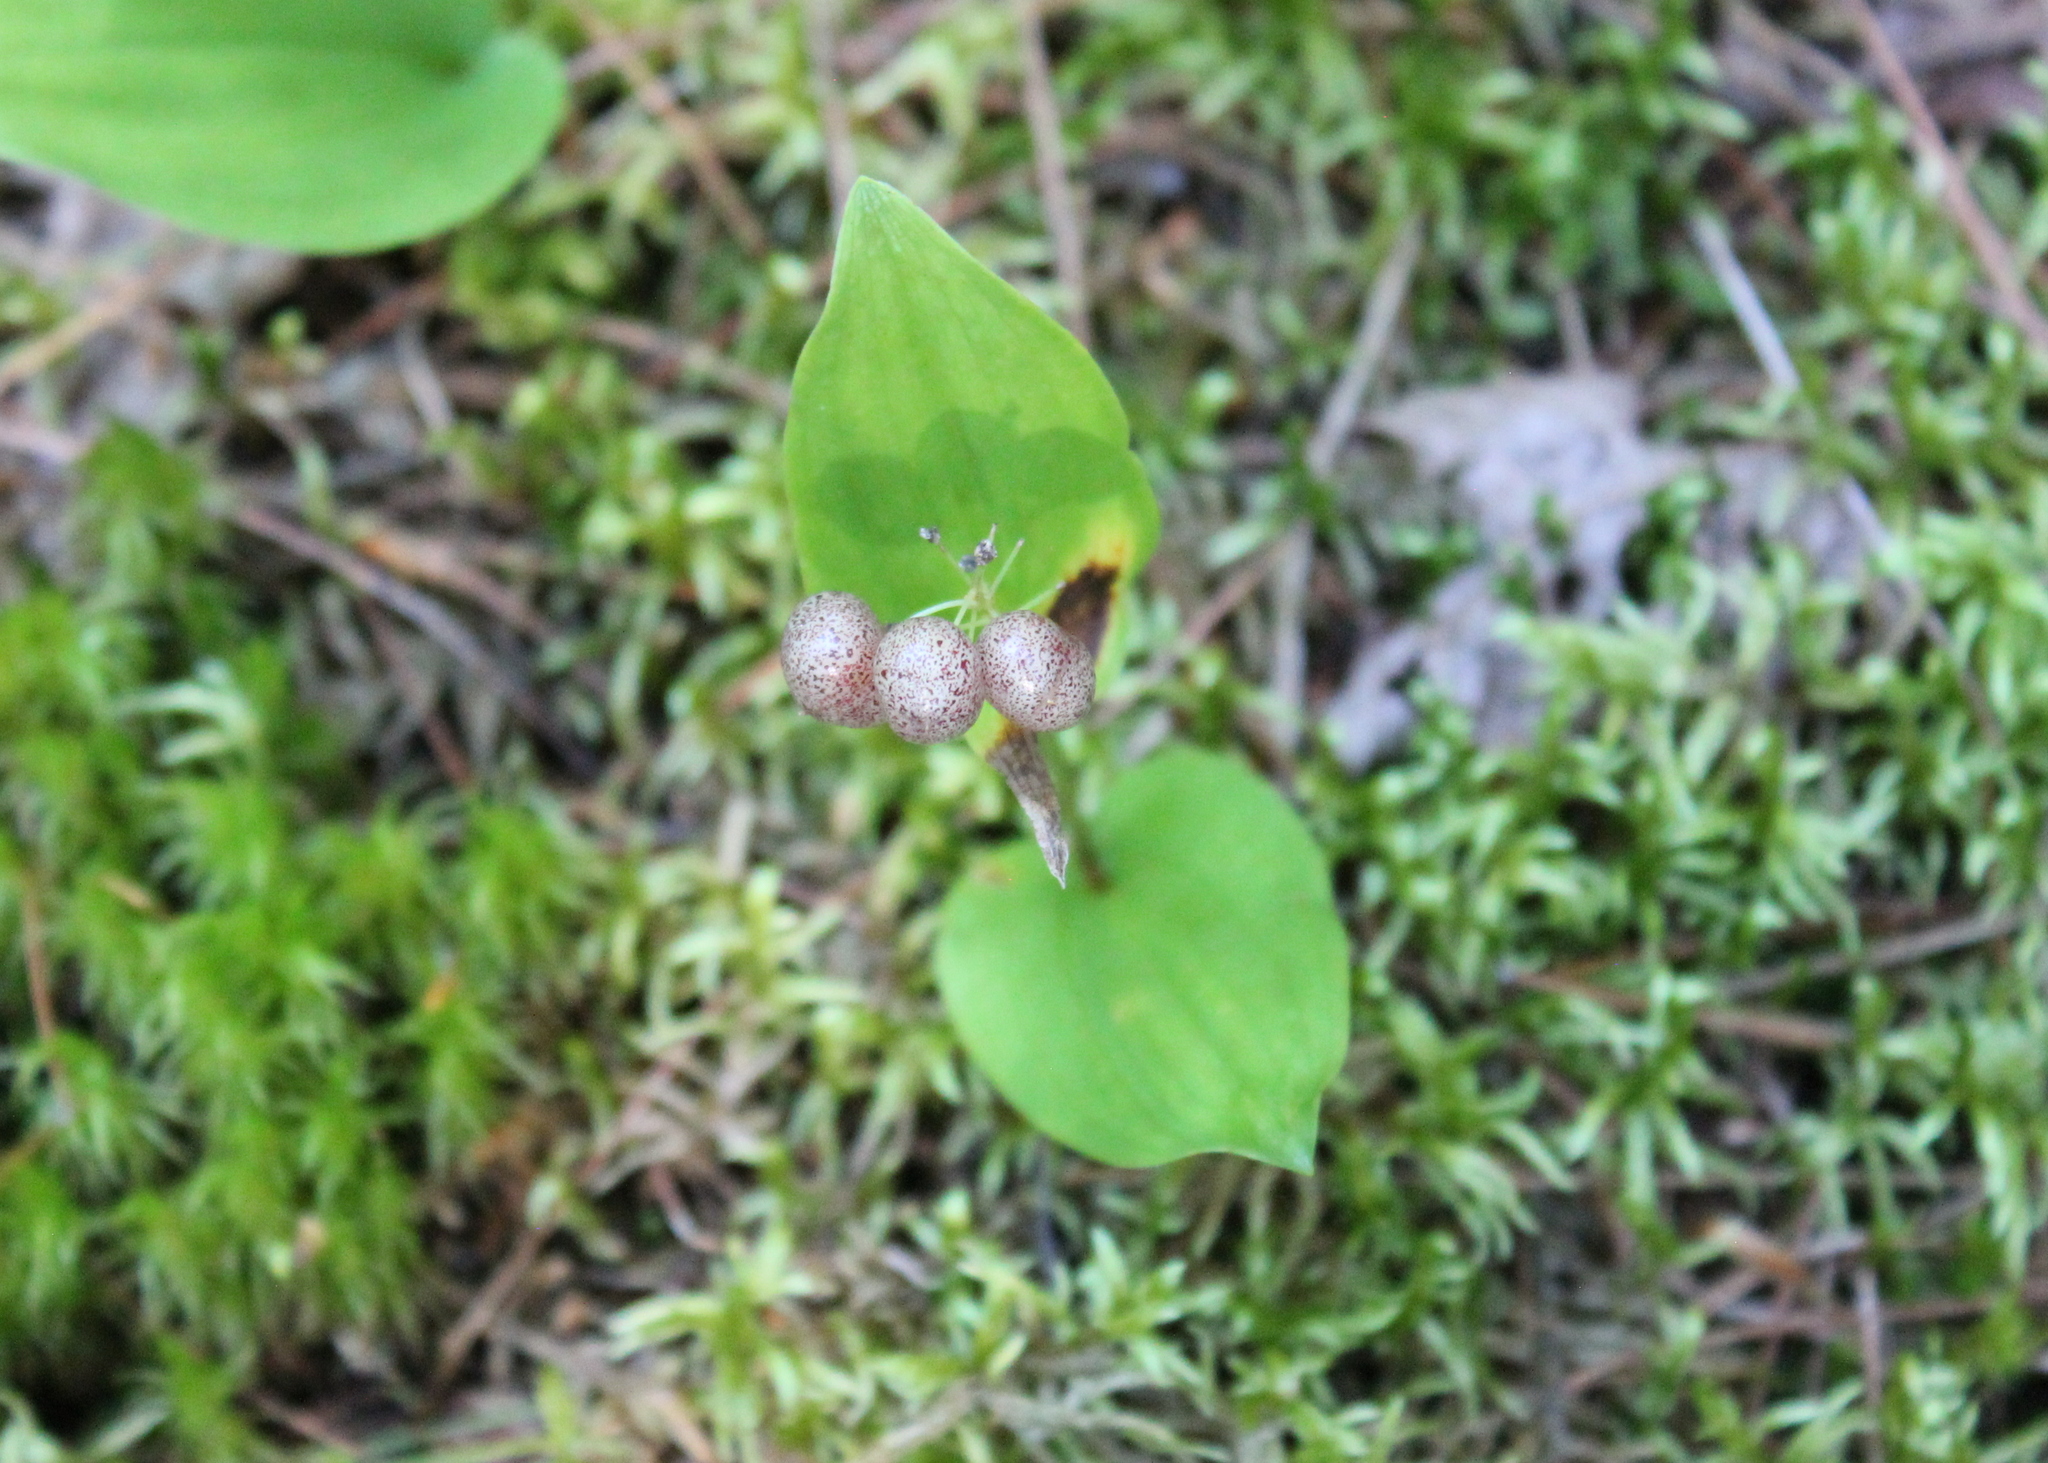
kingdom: Plantae
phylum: Tracheophyta
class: Liliopsida
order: Asparagales
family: Asparagaceae
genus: Maianthemum
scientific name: Maianthemum canadense
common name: False lily-of-the-valley
